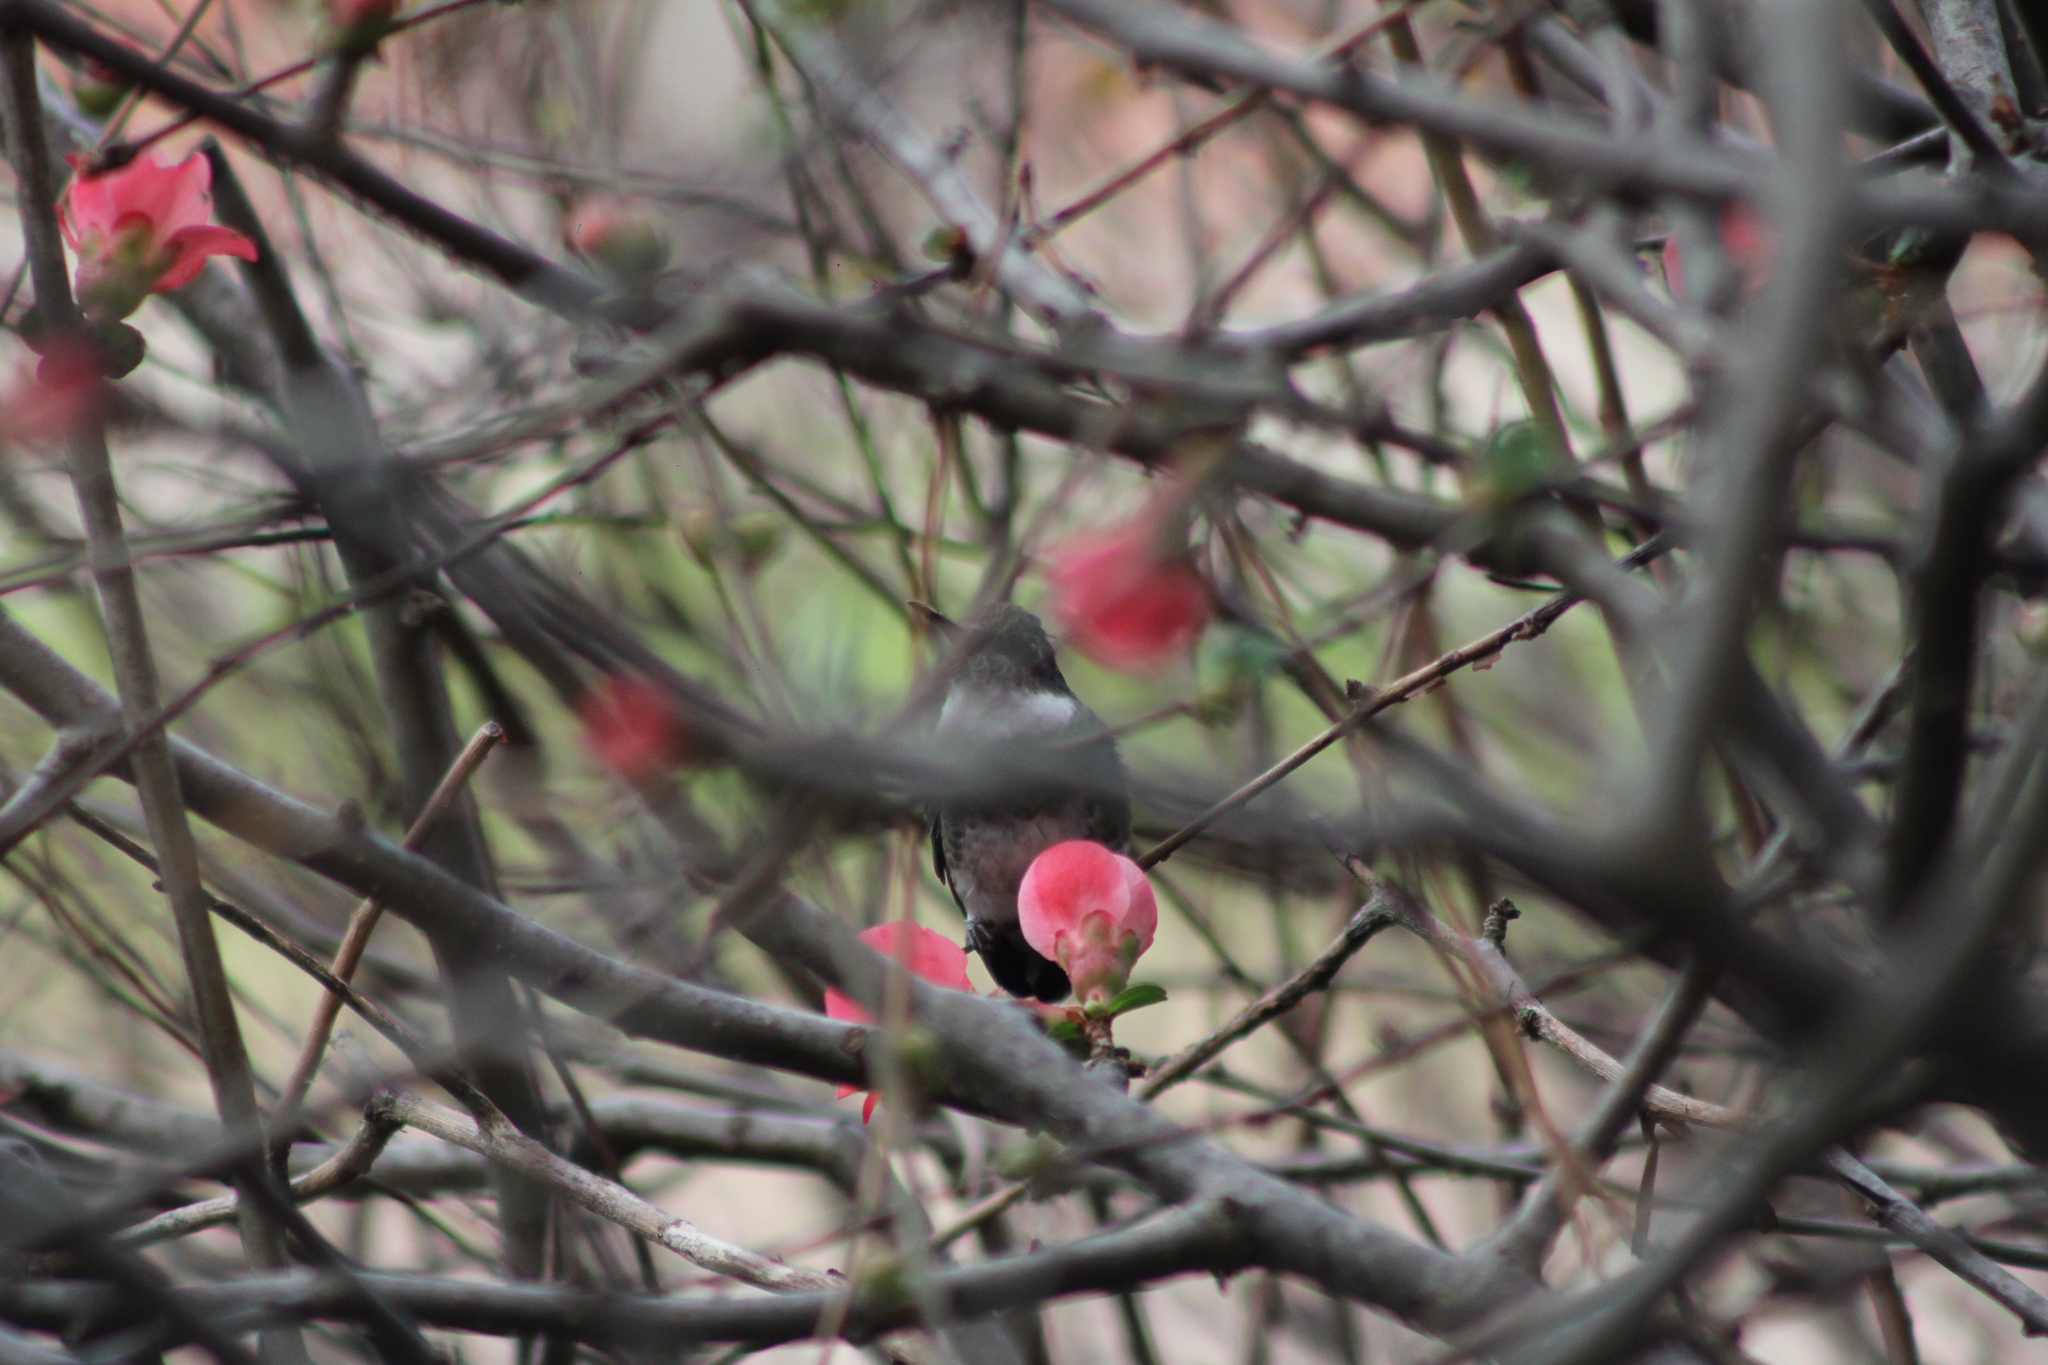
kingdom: Animalia
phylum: Chordata
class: Aves
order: Apodiformes
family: Trochilidae
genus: Leucochloris
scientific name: Leucochloris albicollis
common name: White-throated hummingbird
